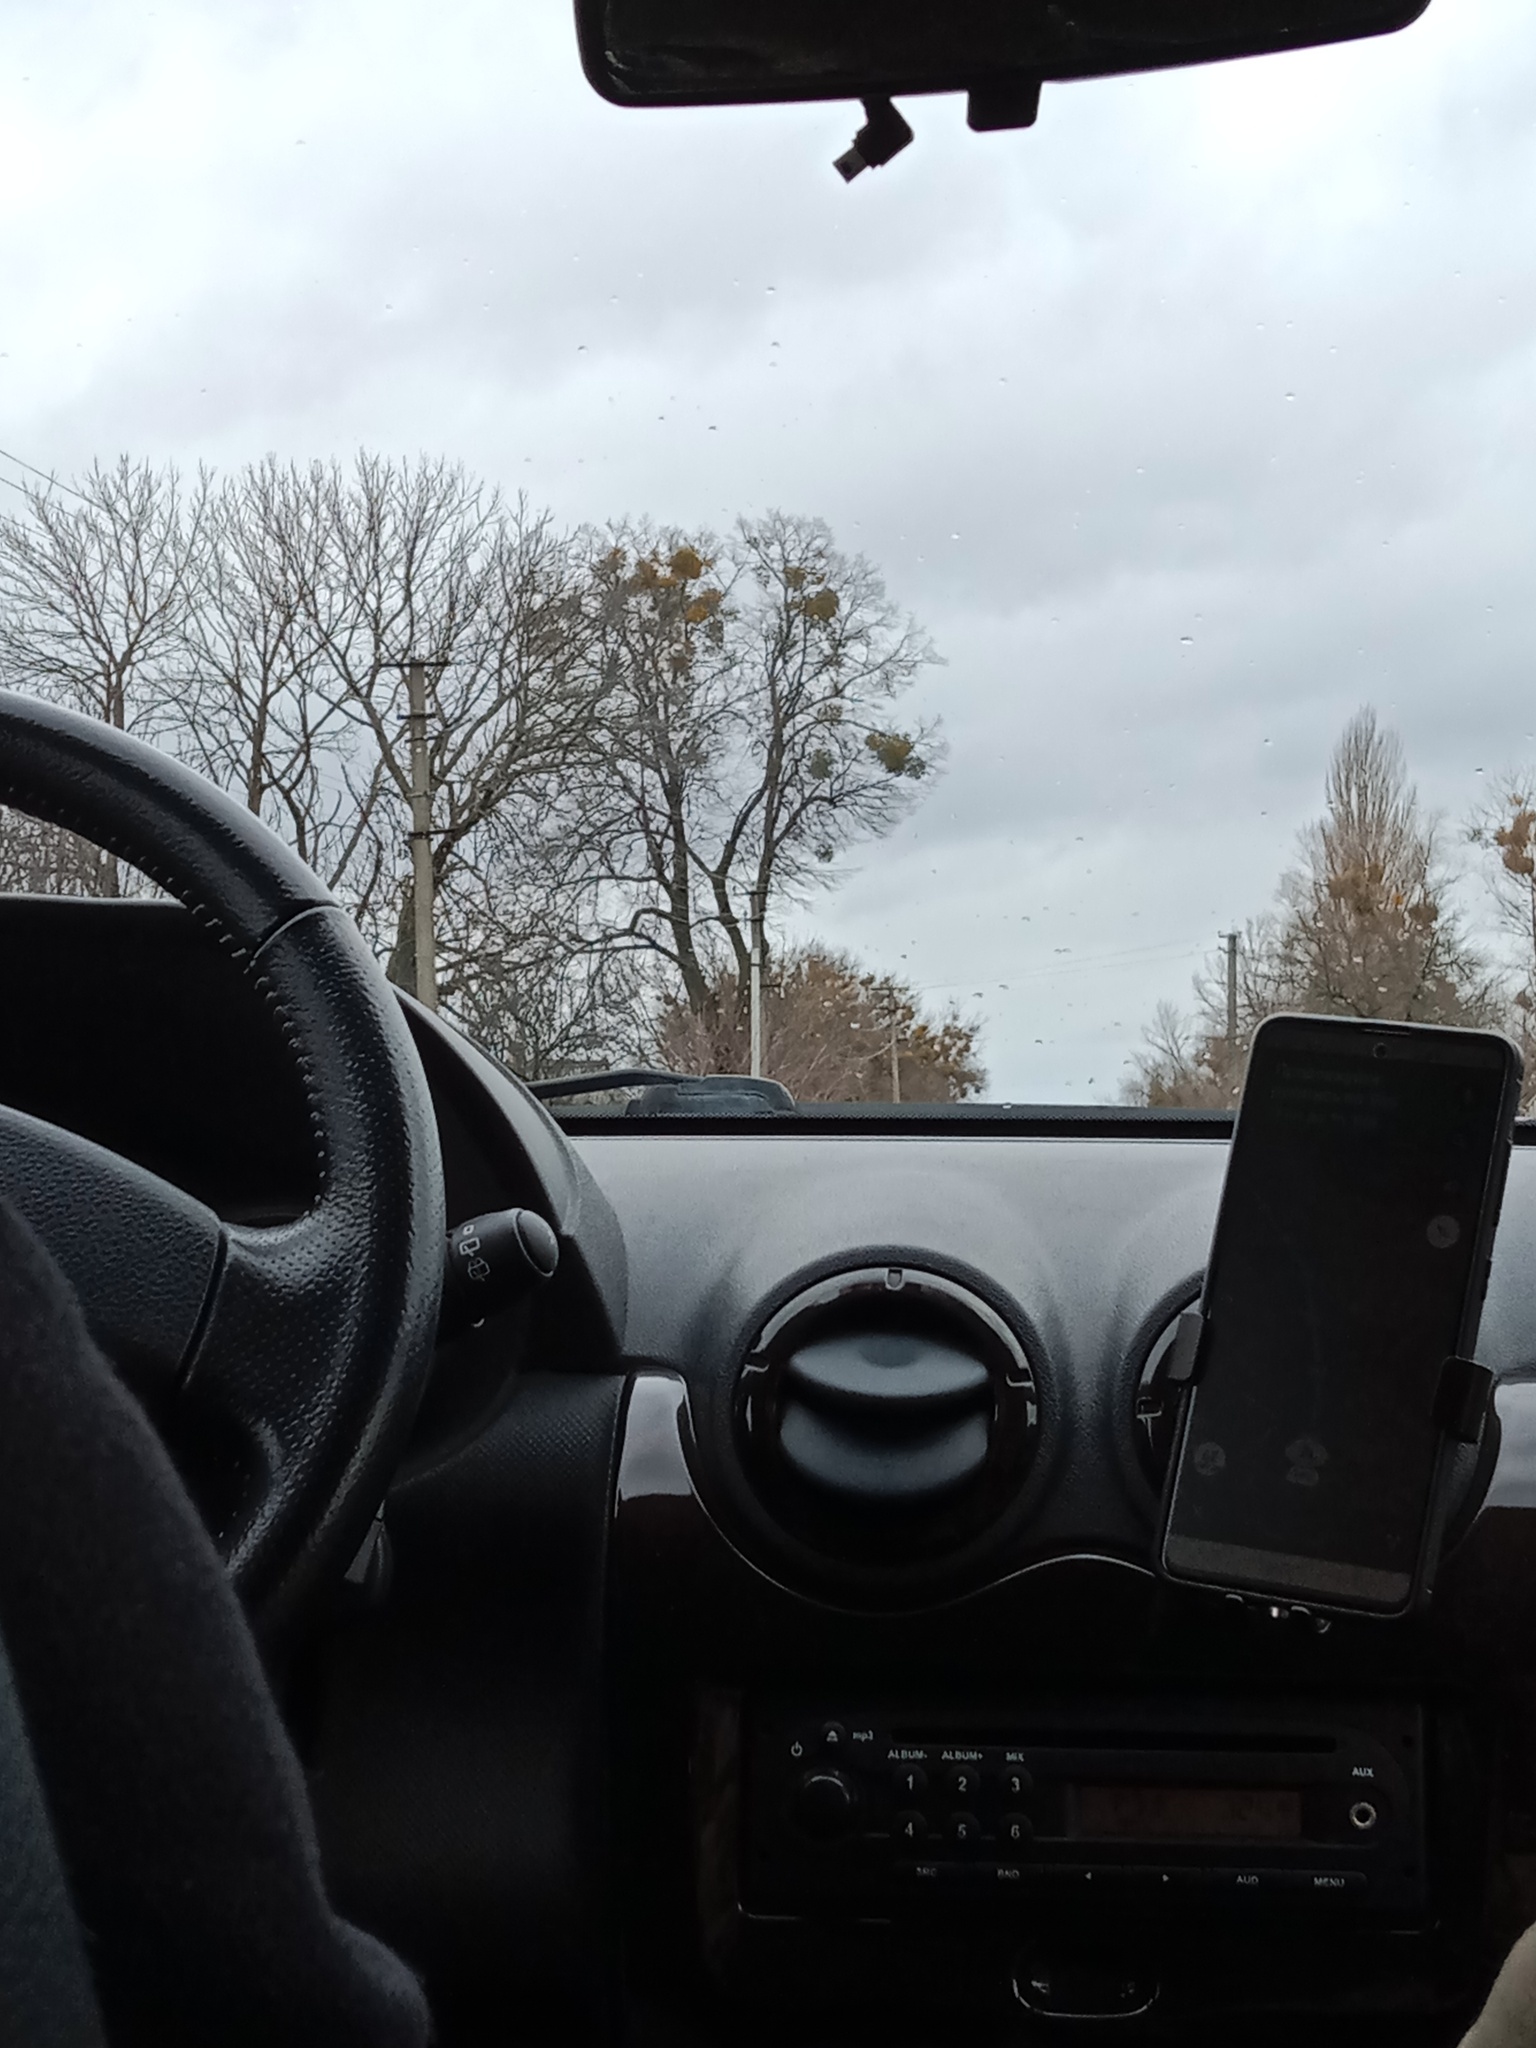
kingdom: Plantae
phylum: Tracheophyta
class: Magnoliopsida
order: Santalales
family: Viscaceae
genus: Viscum
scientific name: Viscum album
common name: Mistletoe
